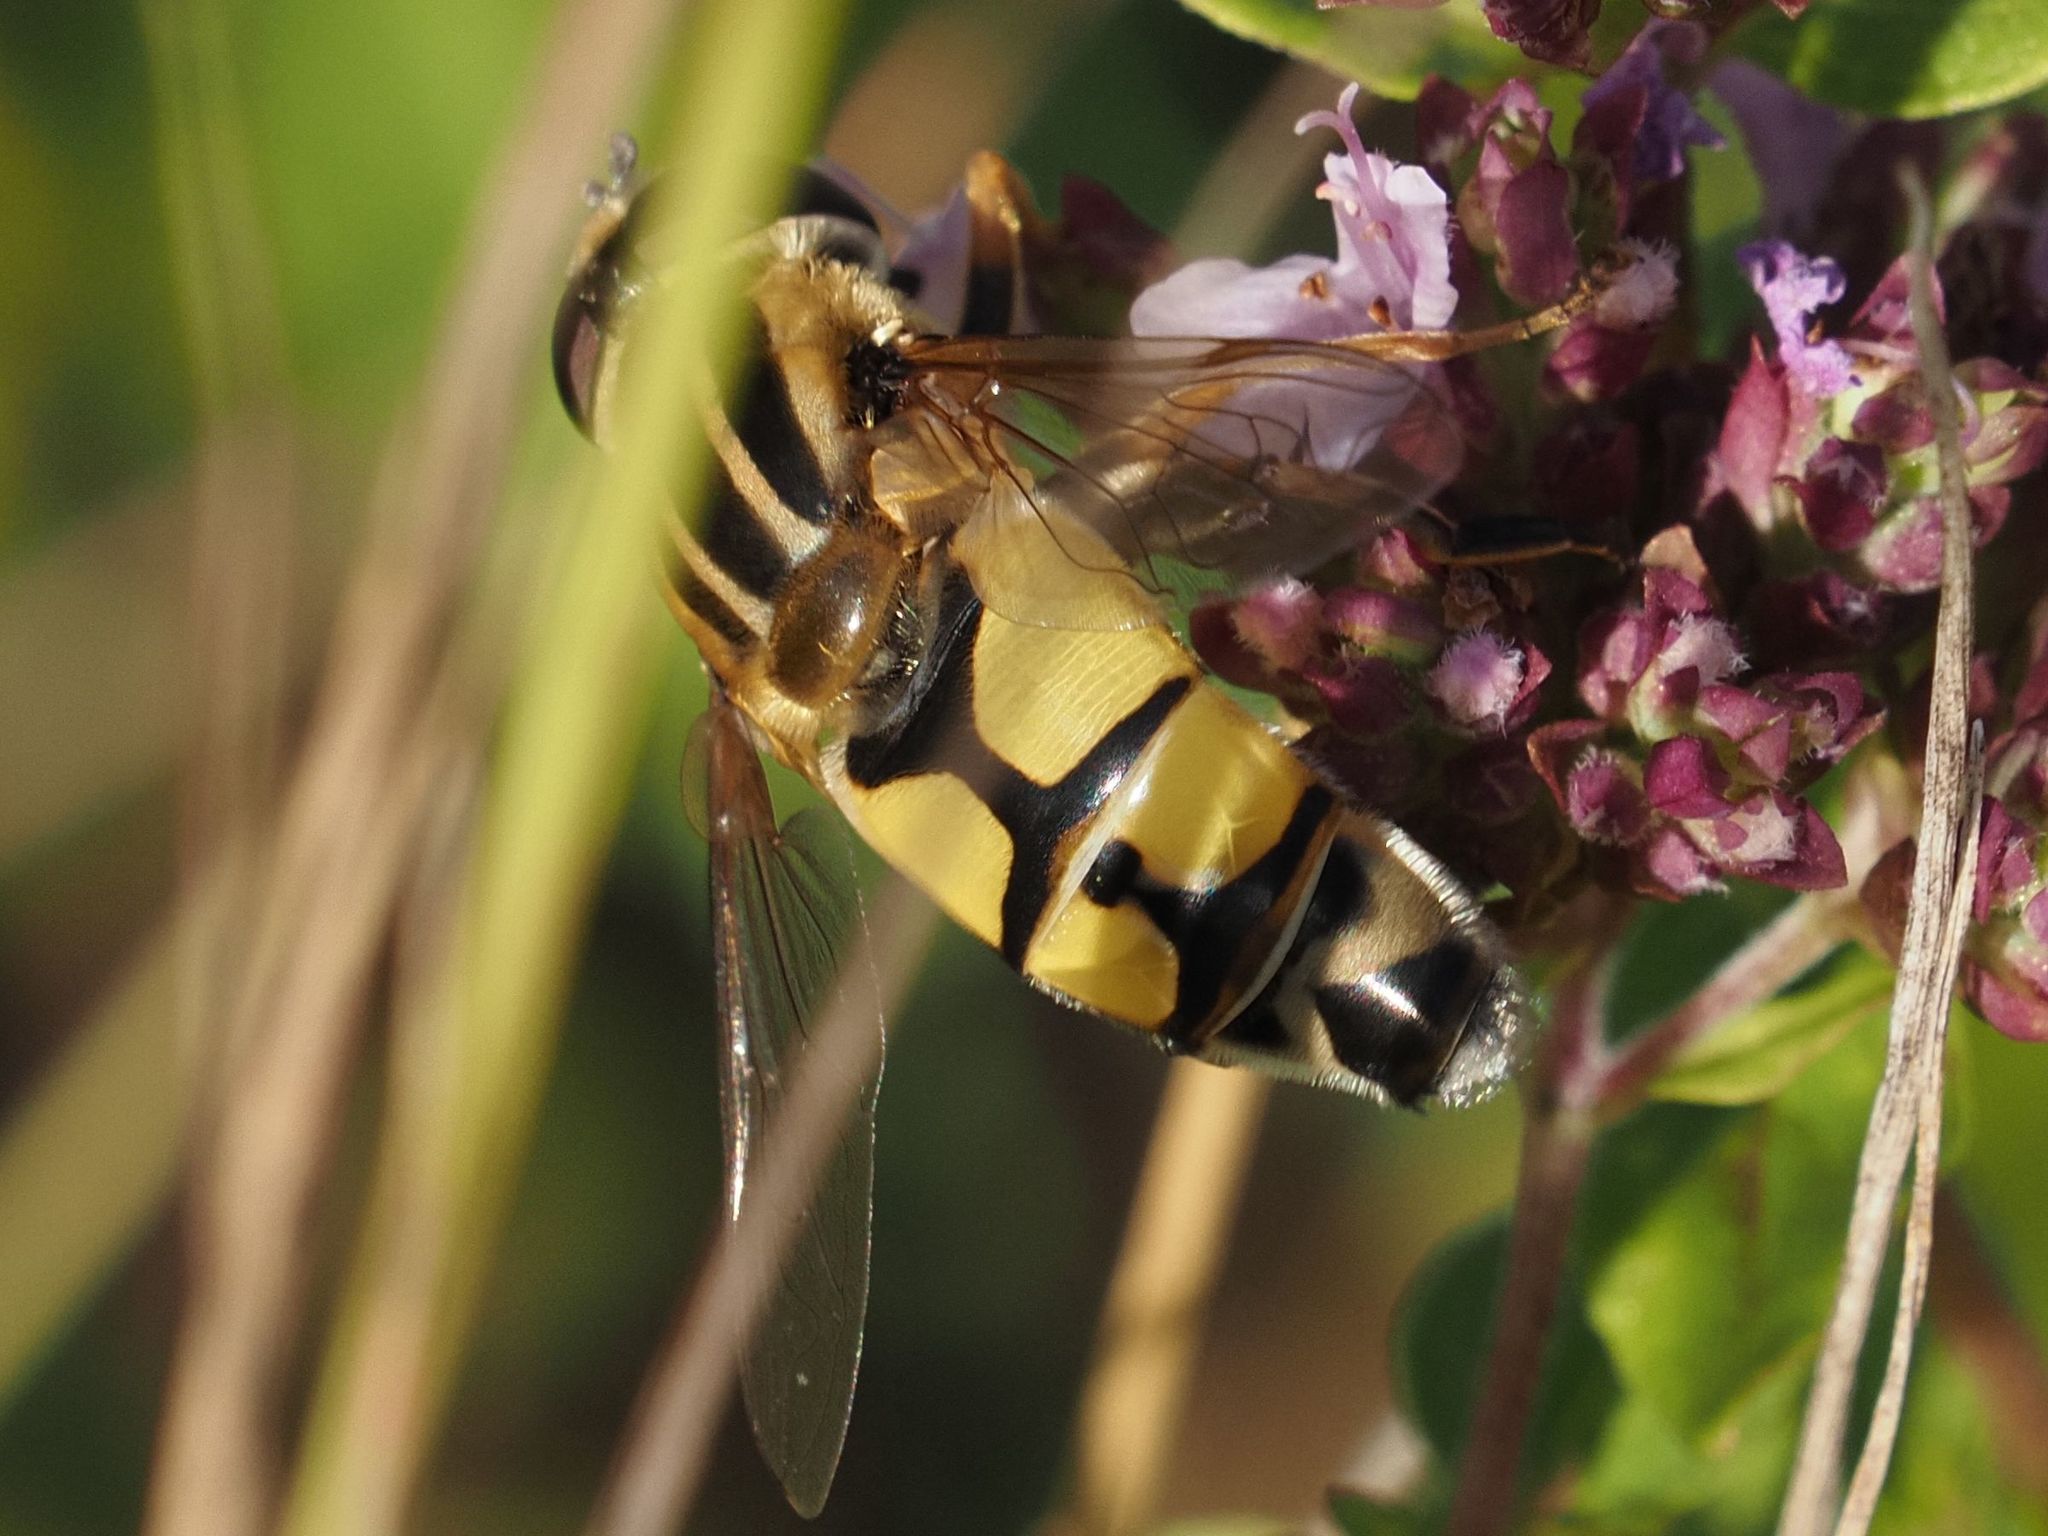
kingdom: Animalia
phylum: Arthropoda
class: Insecta
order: Diptera
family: Syrphidae
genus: Helophilus
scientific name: Helophilus trivittatus
